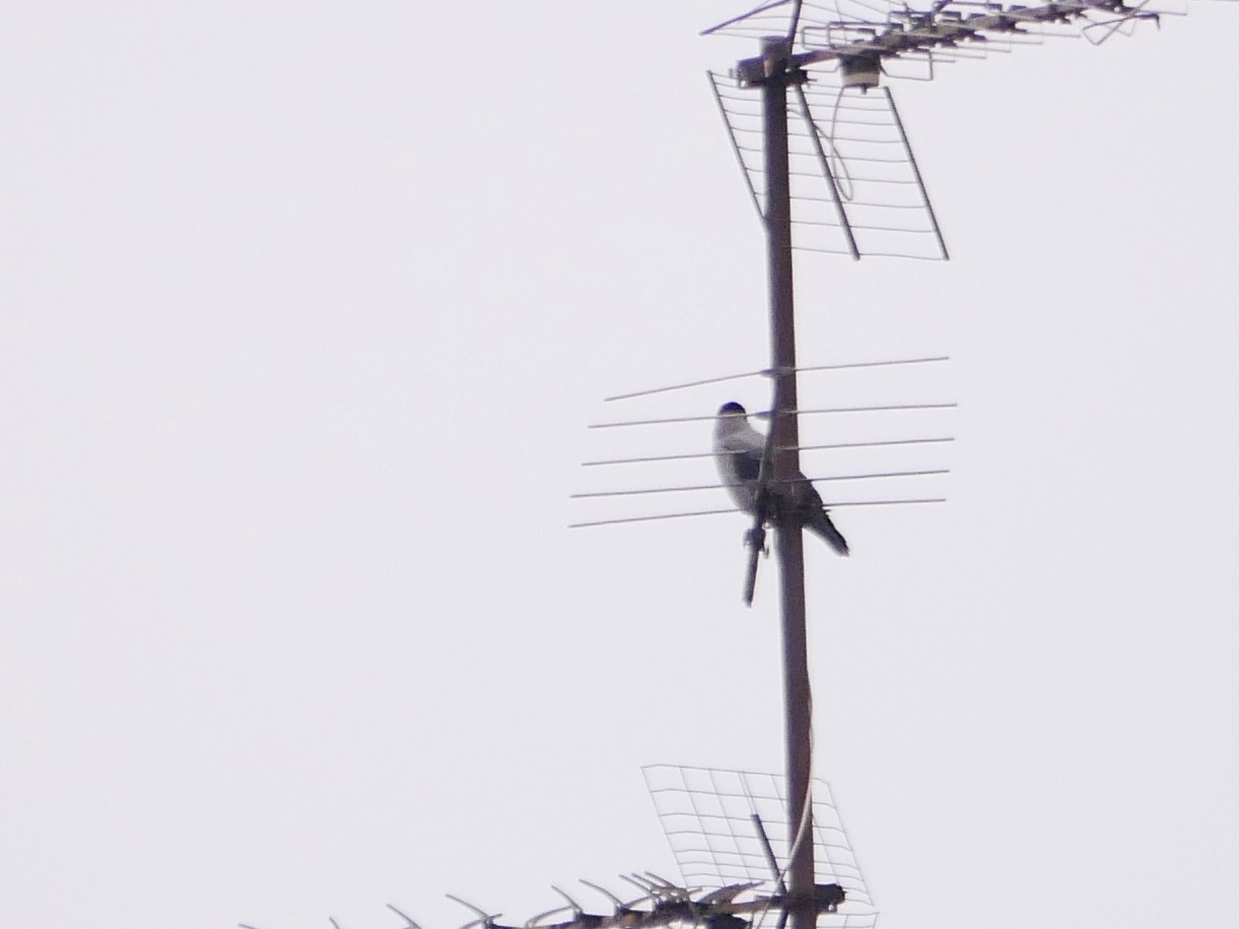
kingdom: Animalia
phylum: Chordata
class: Aves
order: Passeriformes
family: Corvidae
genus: Corvus
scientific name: Corvus cornix
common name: Hooded crow
